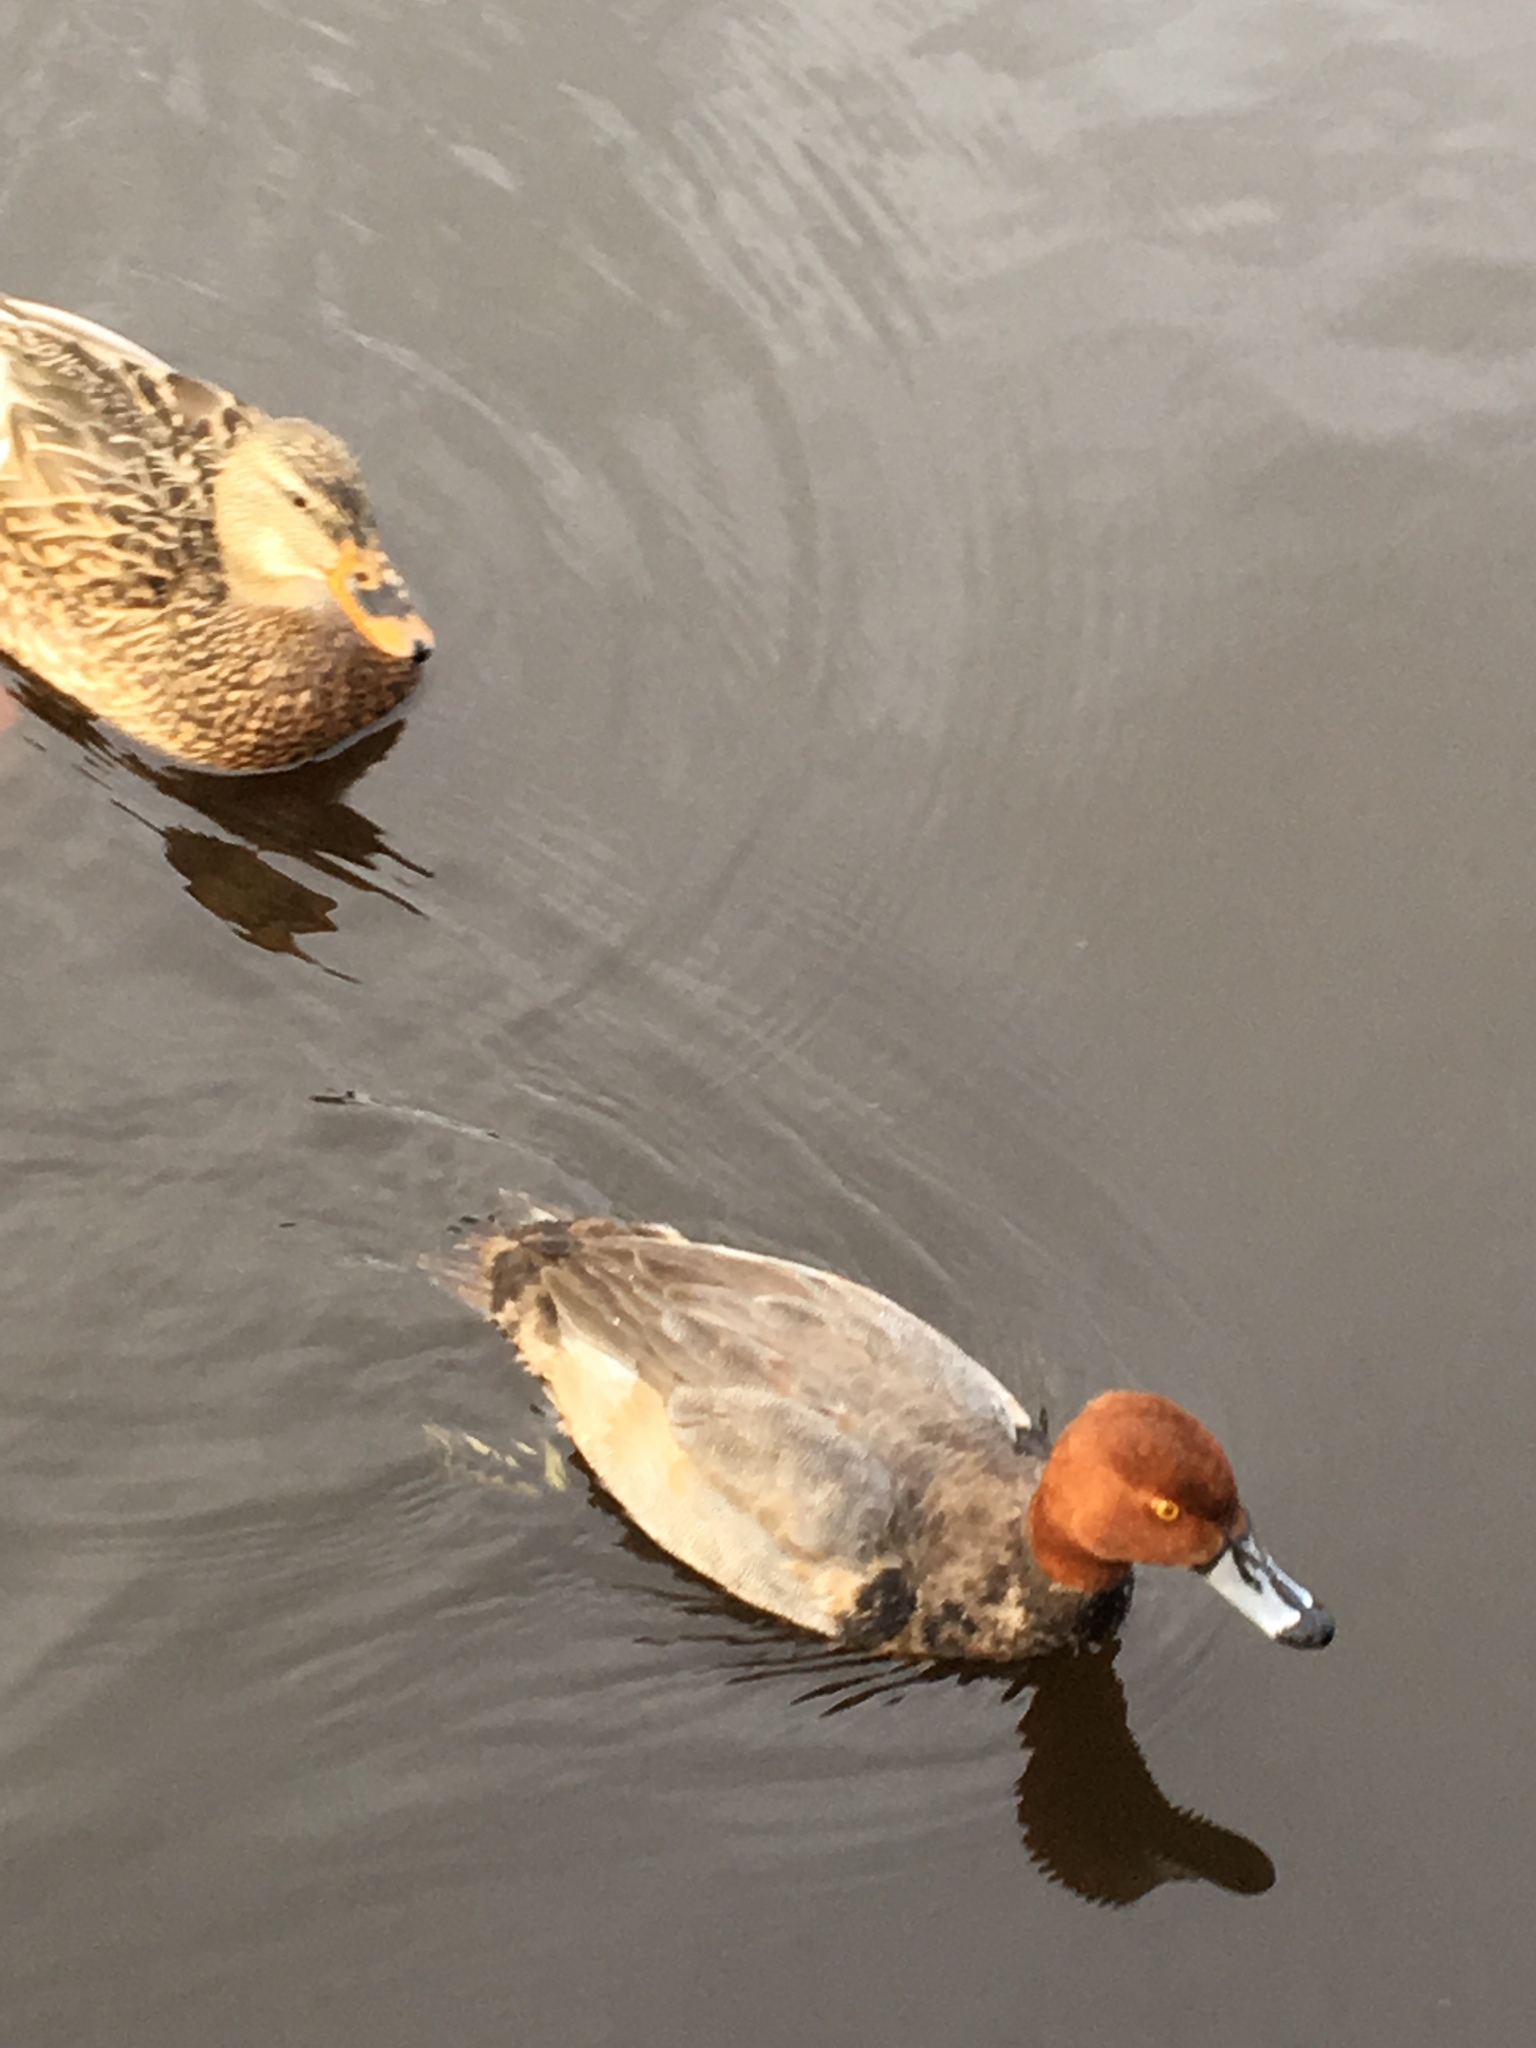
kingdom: Animalia
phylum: Chordata
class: Aves
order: Anseriformes
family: Anatidae
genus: Aythya
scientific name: Aythya americana
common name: Redhead
